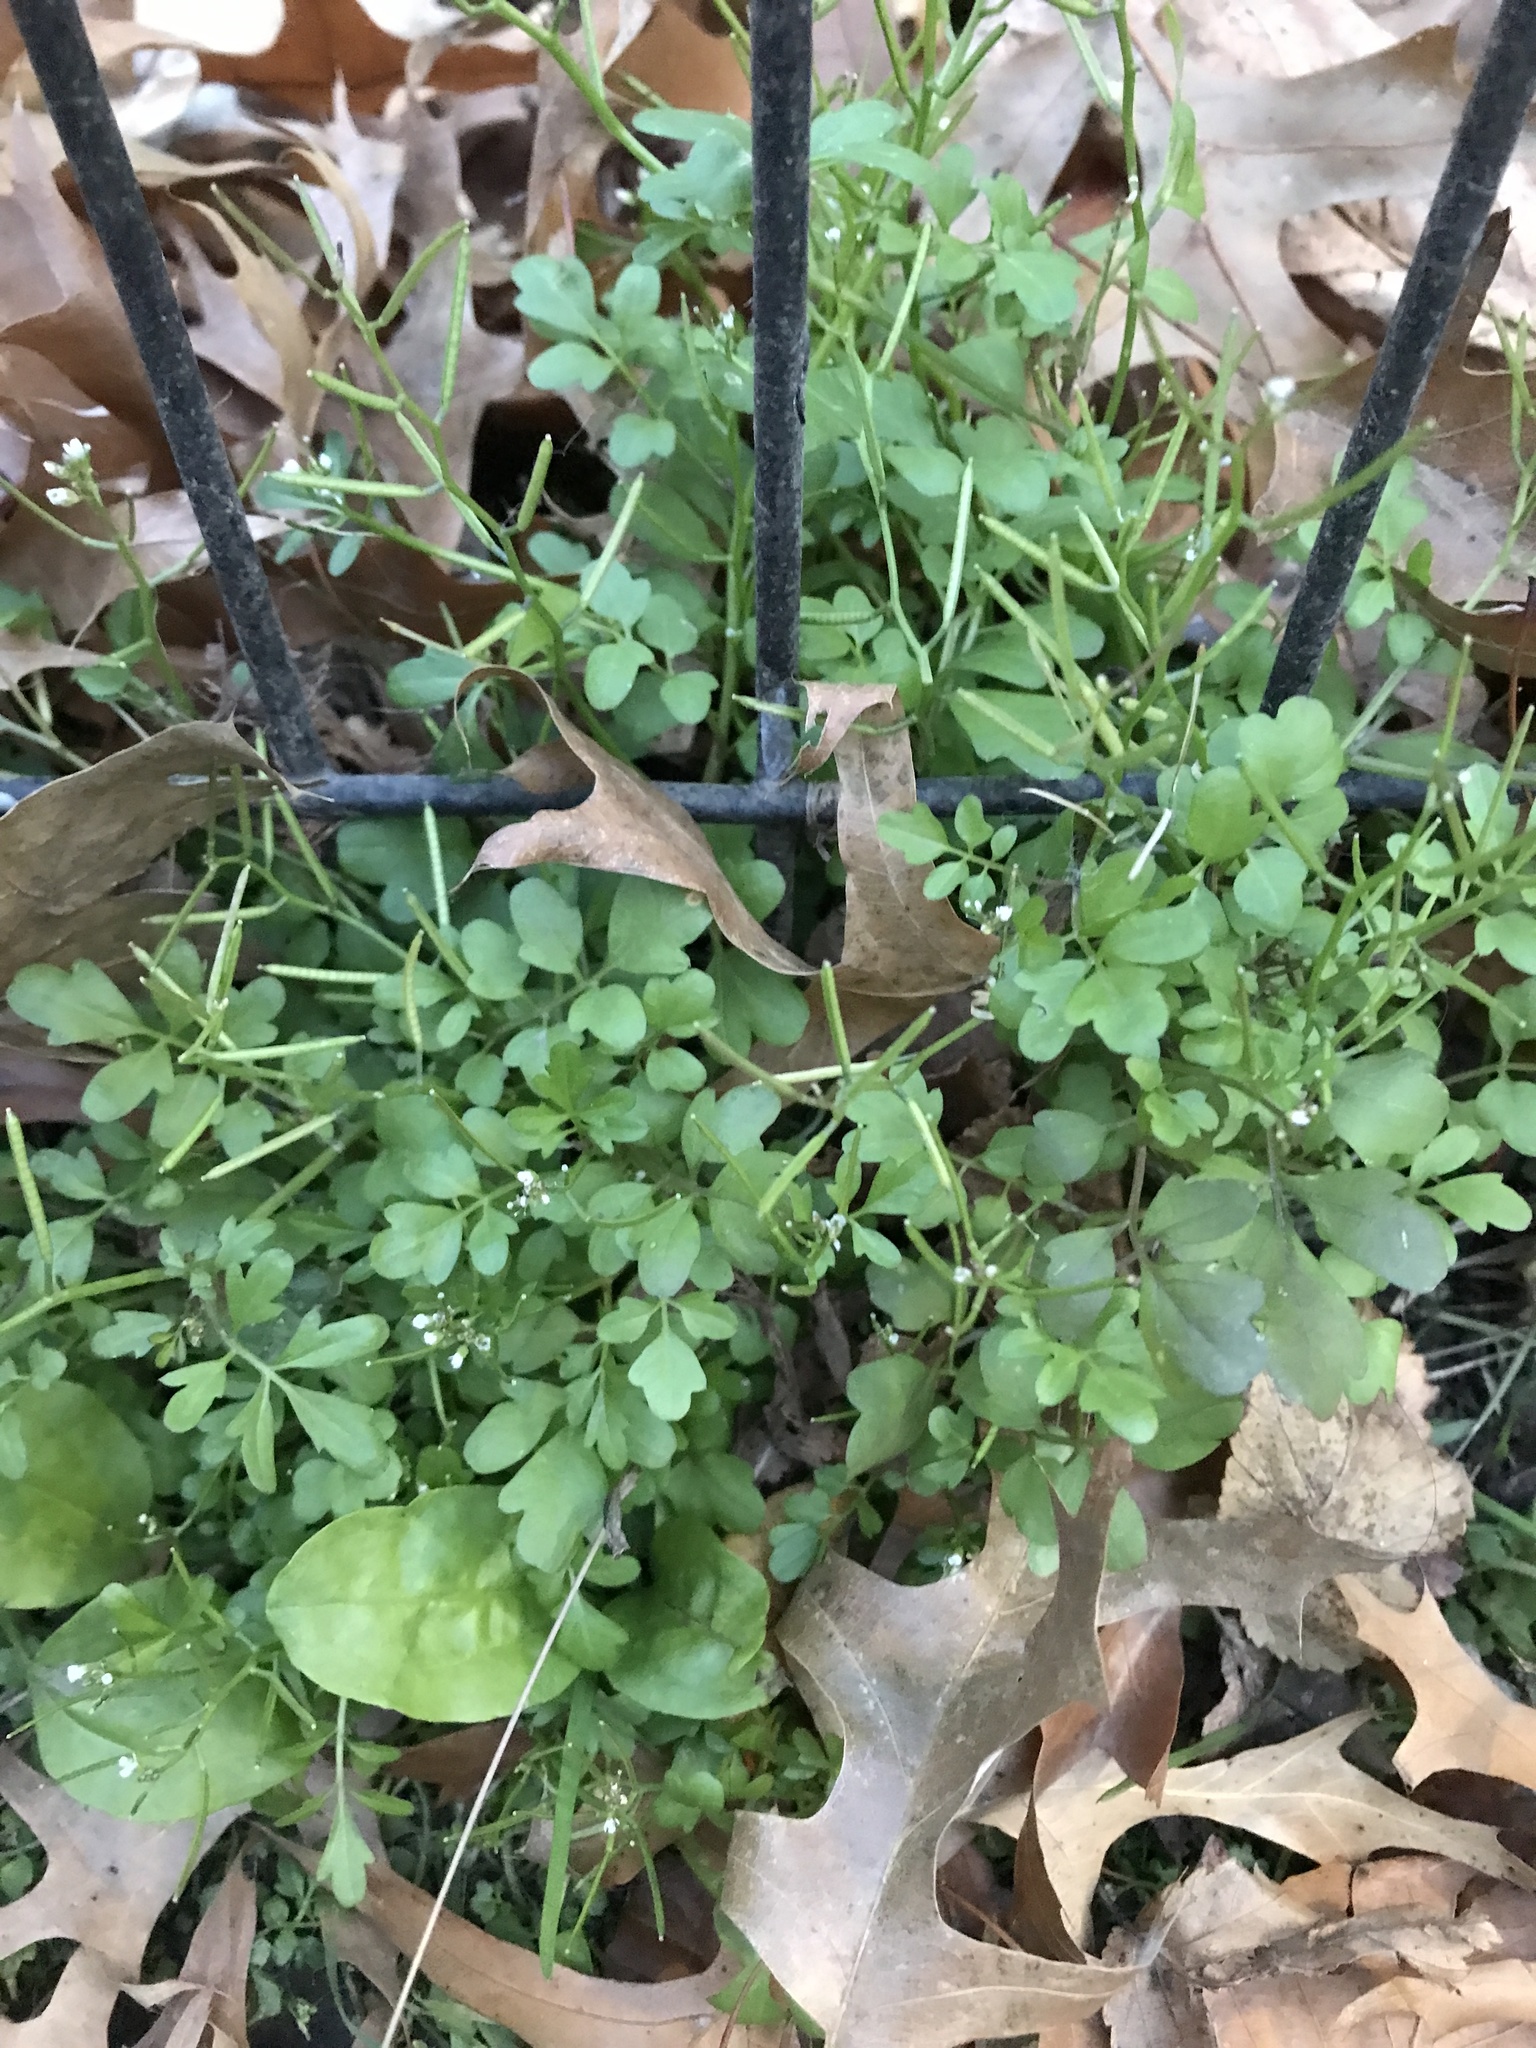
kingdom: Plantae
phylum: Tracheophyta
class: Magnoliopsida
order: Brassicales
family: Brassicaceae
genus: Cardamine
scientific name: Cardamine occulta
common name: Asian wavy bittercress
